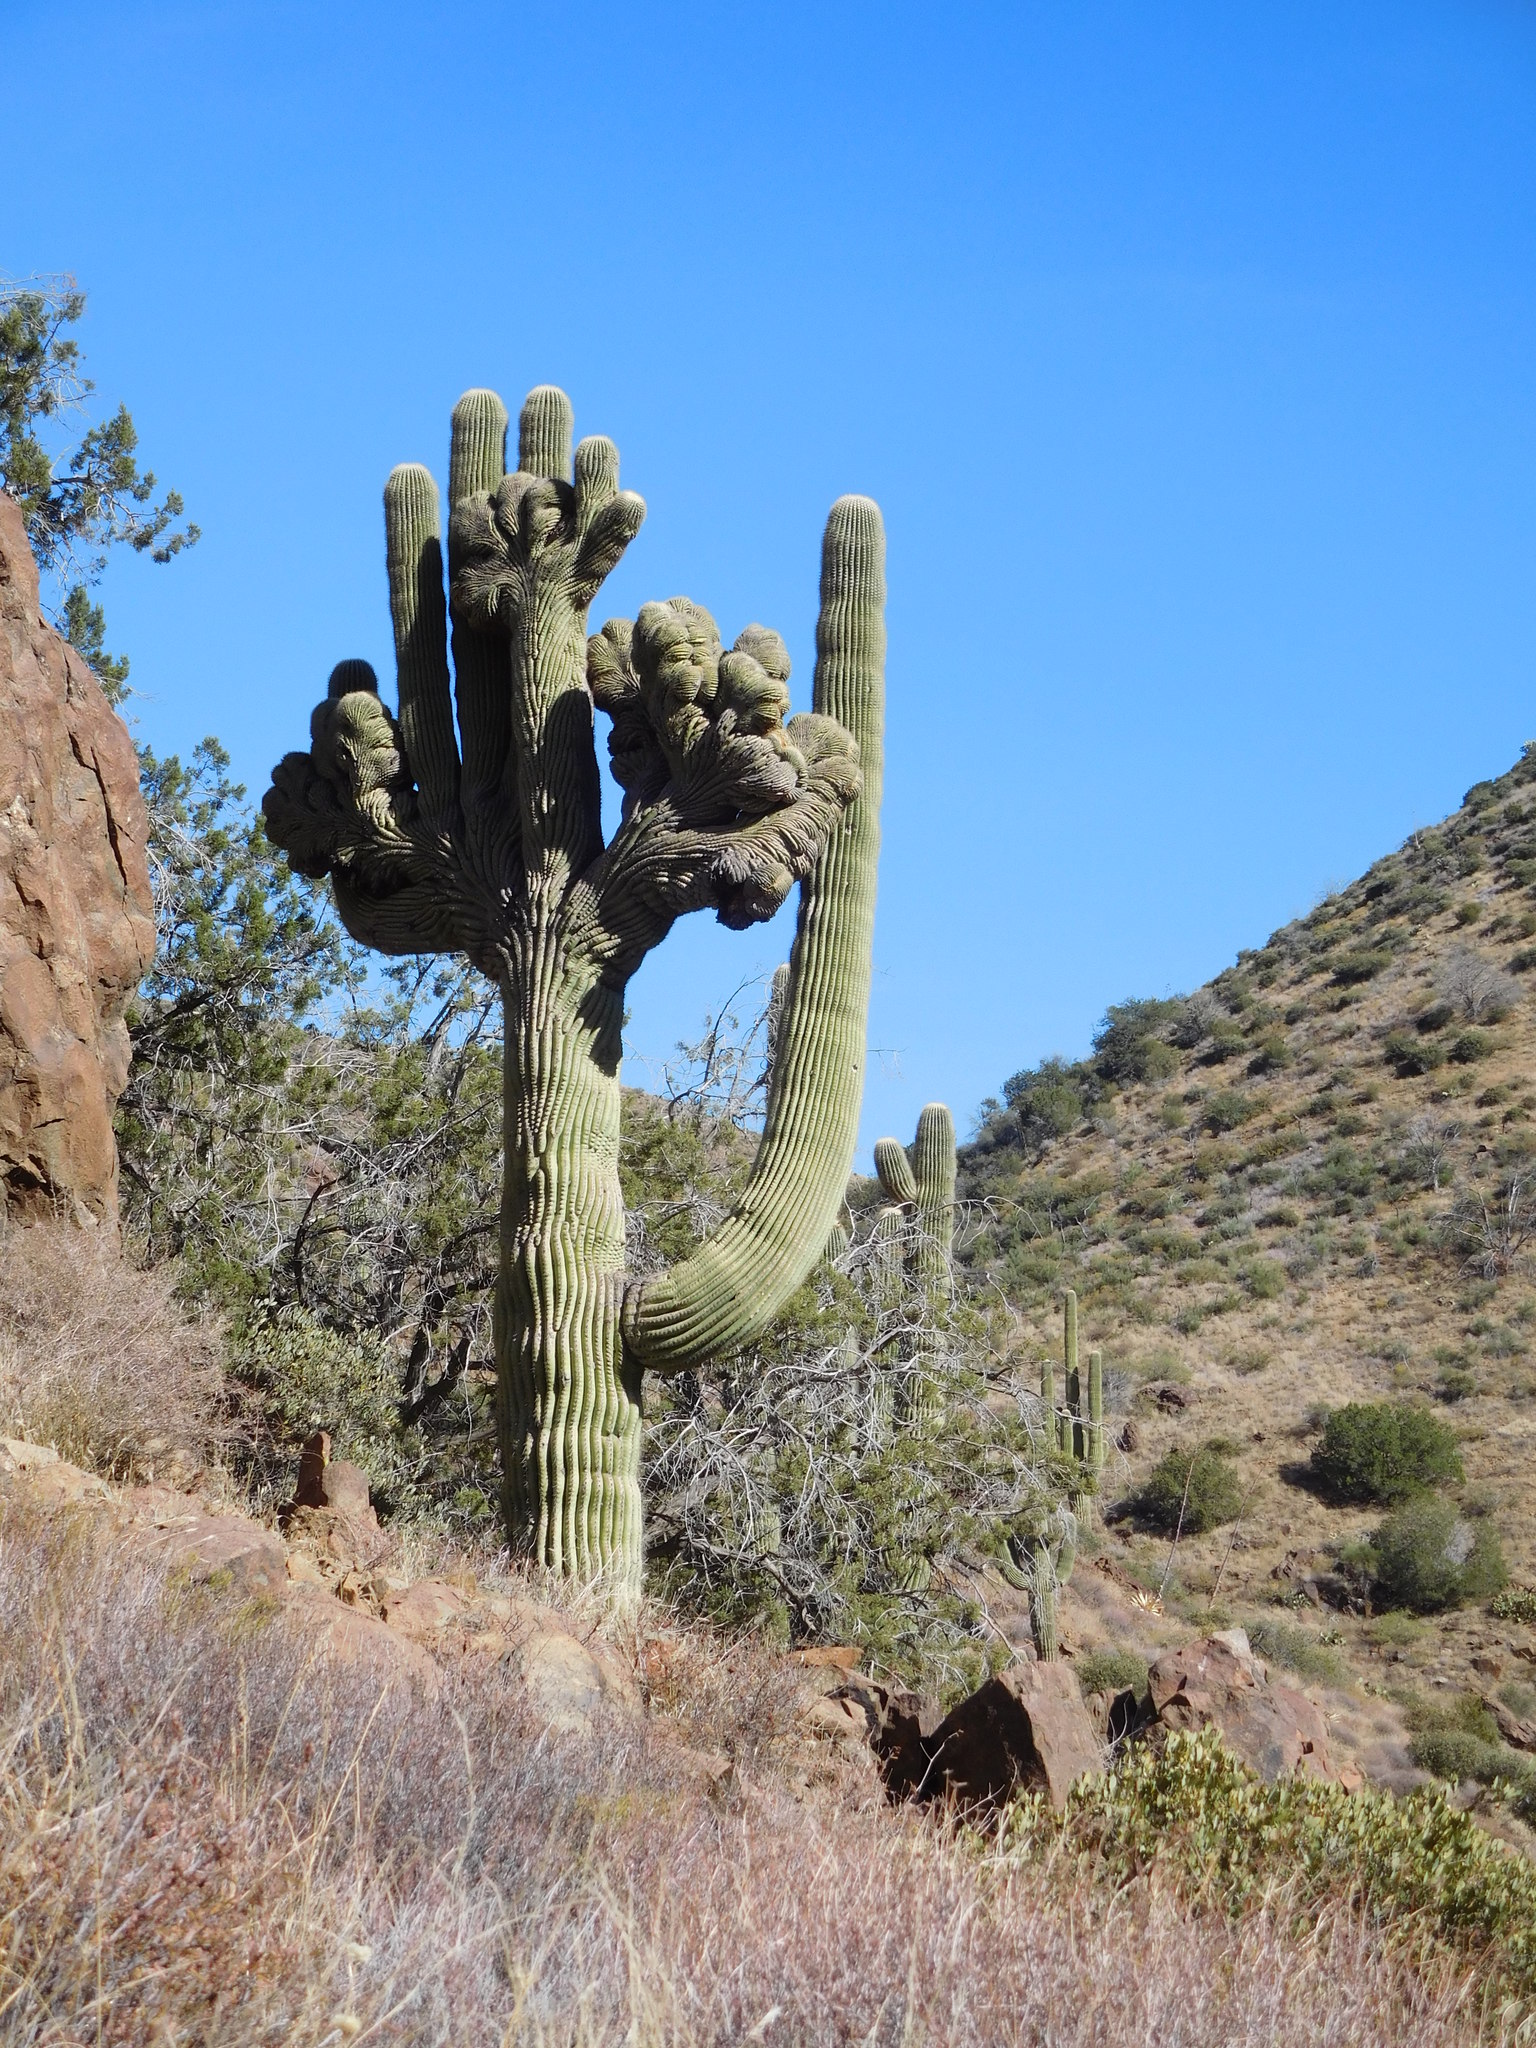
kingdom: Plantae
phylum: Tracheophyta
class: Magnoliopsida
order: Caryophyllales
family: Cactaceae
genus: Carnegiea
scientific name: Carnegiea gigantea
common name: Saguaro
